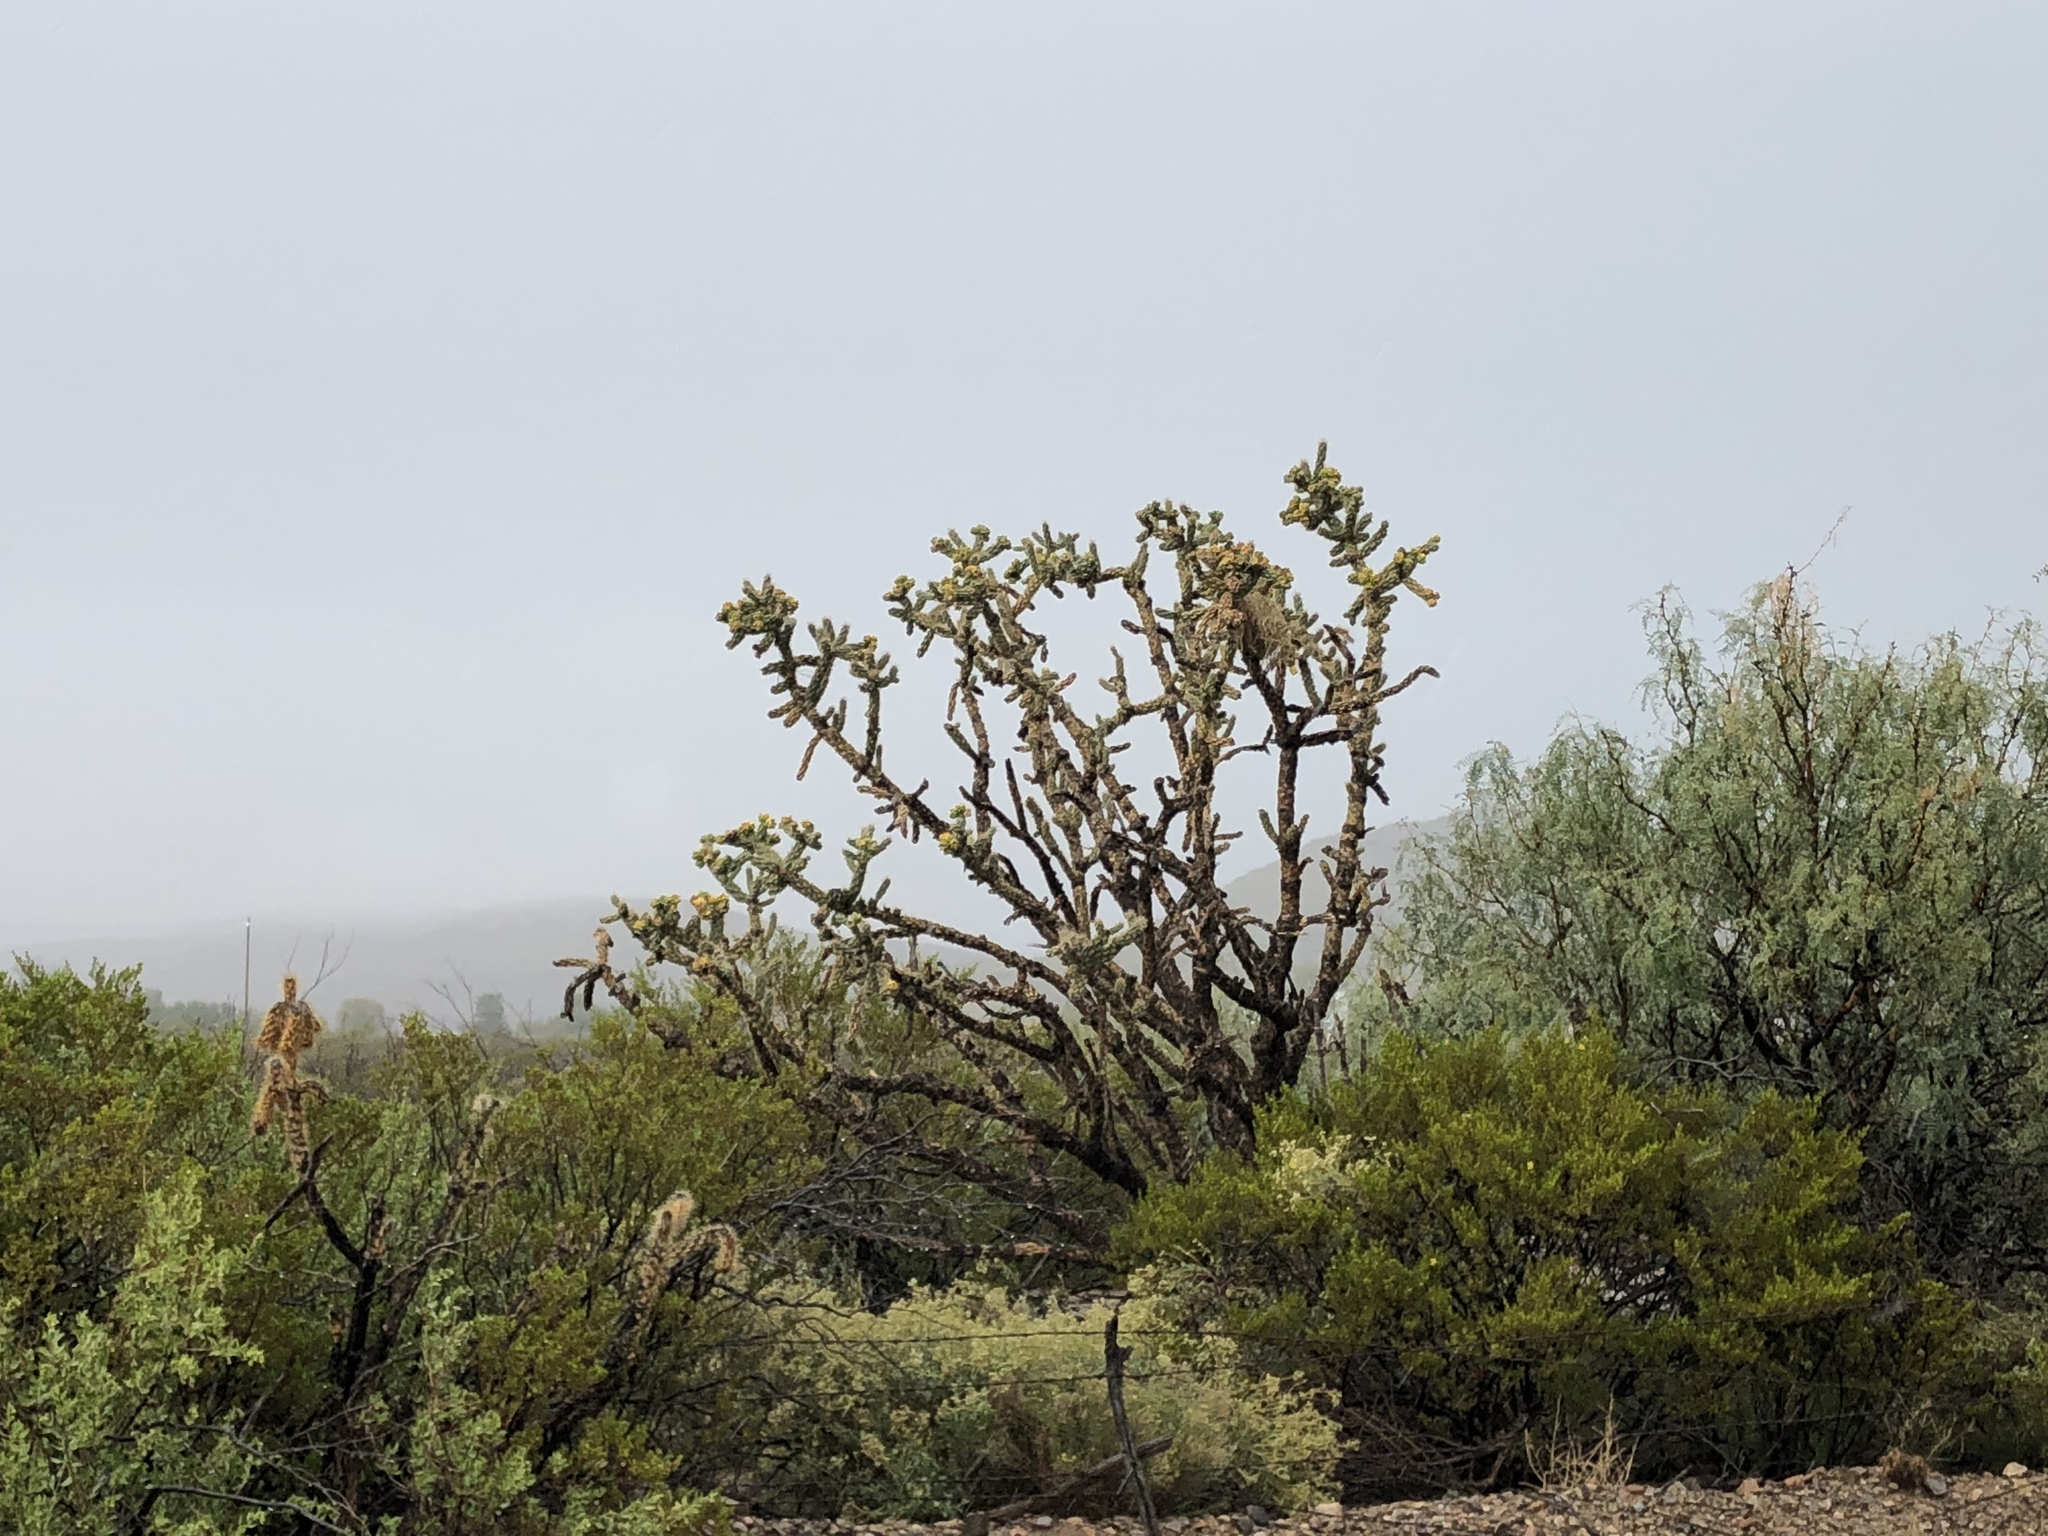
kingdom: Plantae
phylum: Tracheophyta
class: Magnoliopsida
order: Caryophyllales
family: Cactaceae
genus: Cylindropuntia
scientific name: Cylindropuntia imbricata
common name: Candelabrum cactus
